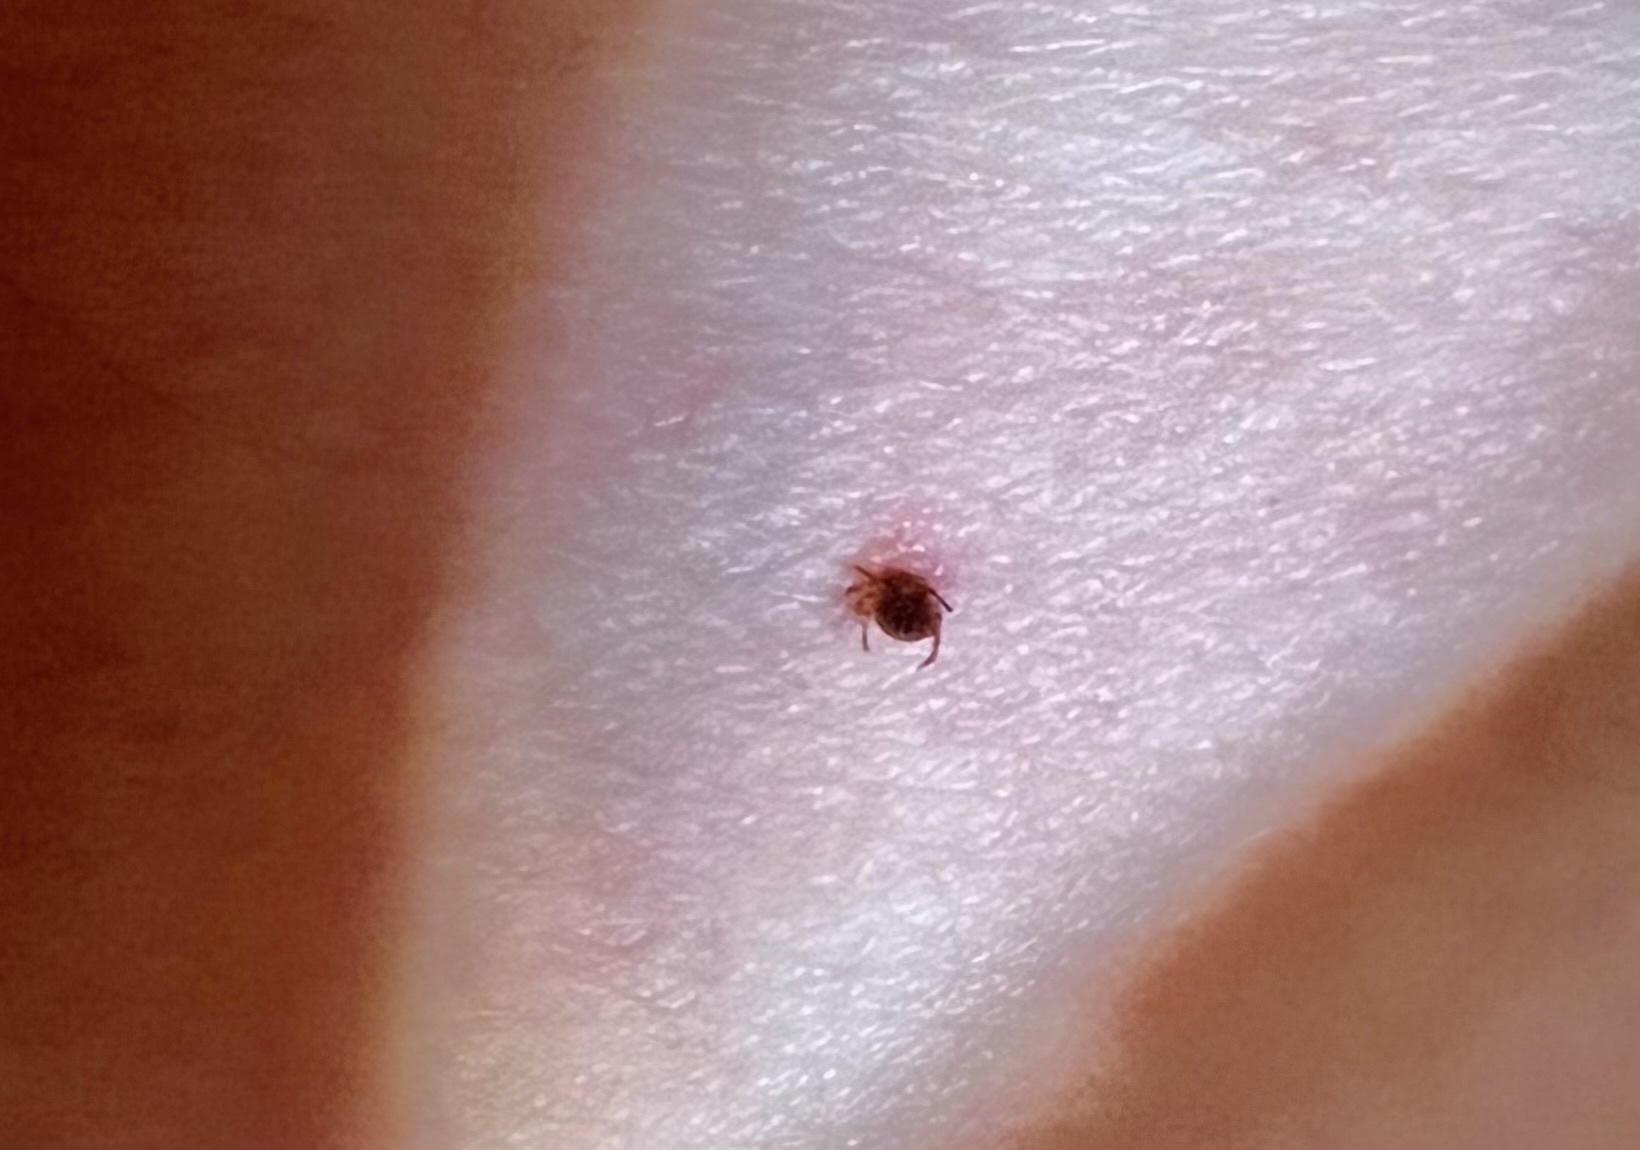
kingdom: Animalia
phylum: Arthropoda
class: Arachnida
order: Ixodida
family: Ixodidae
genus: Amblyomma
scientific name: Amblyomma americanum
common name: Lone star tick
